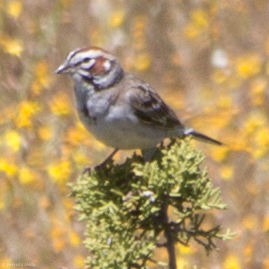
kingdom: Animalia
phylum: Chordata
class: Aves
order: Passeriformes
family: Passerellidae
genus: Chondestes
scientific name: Chondestes grammacus
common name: Lark sparrow
